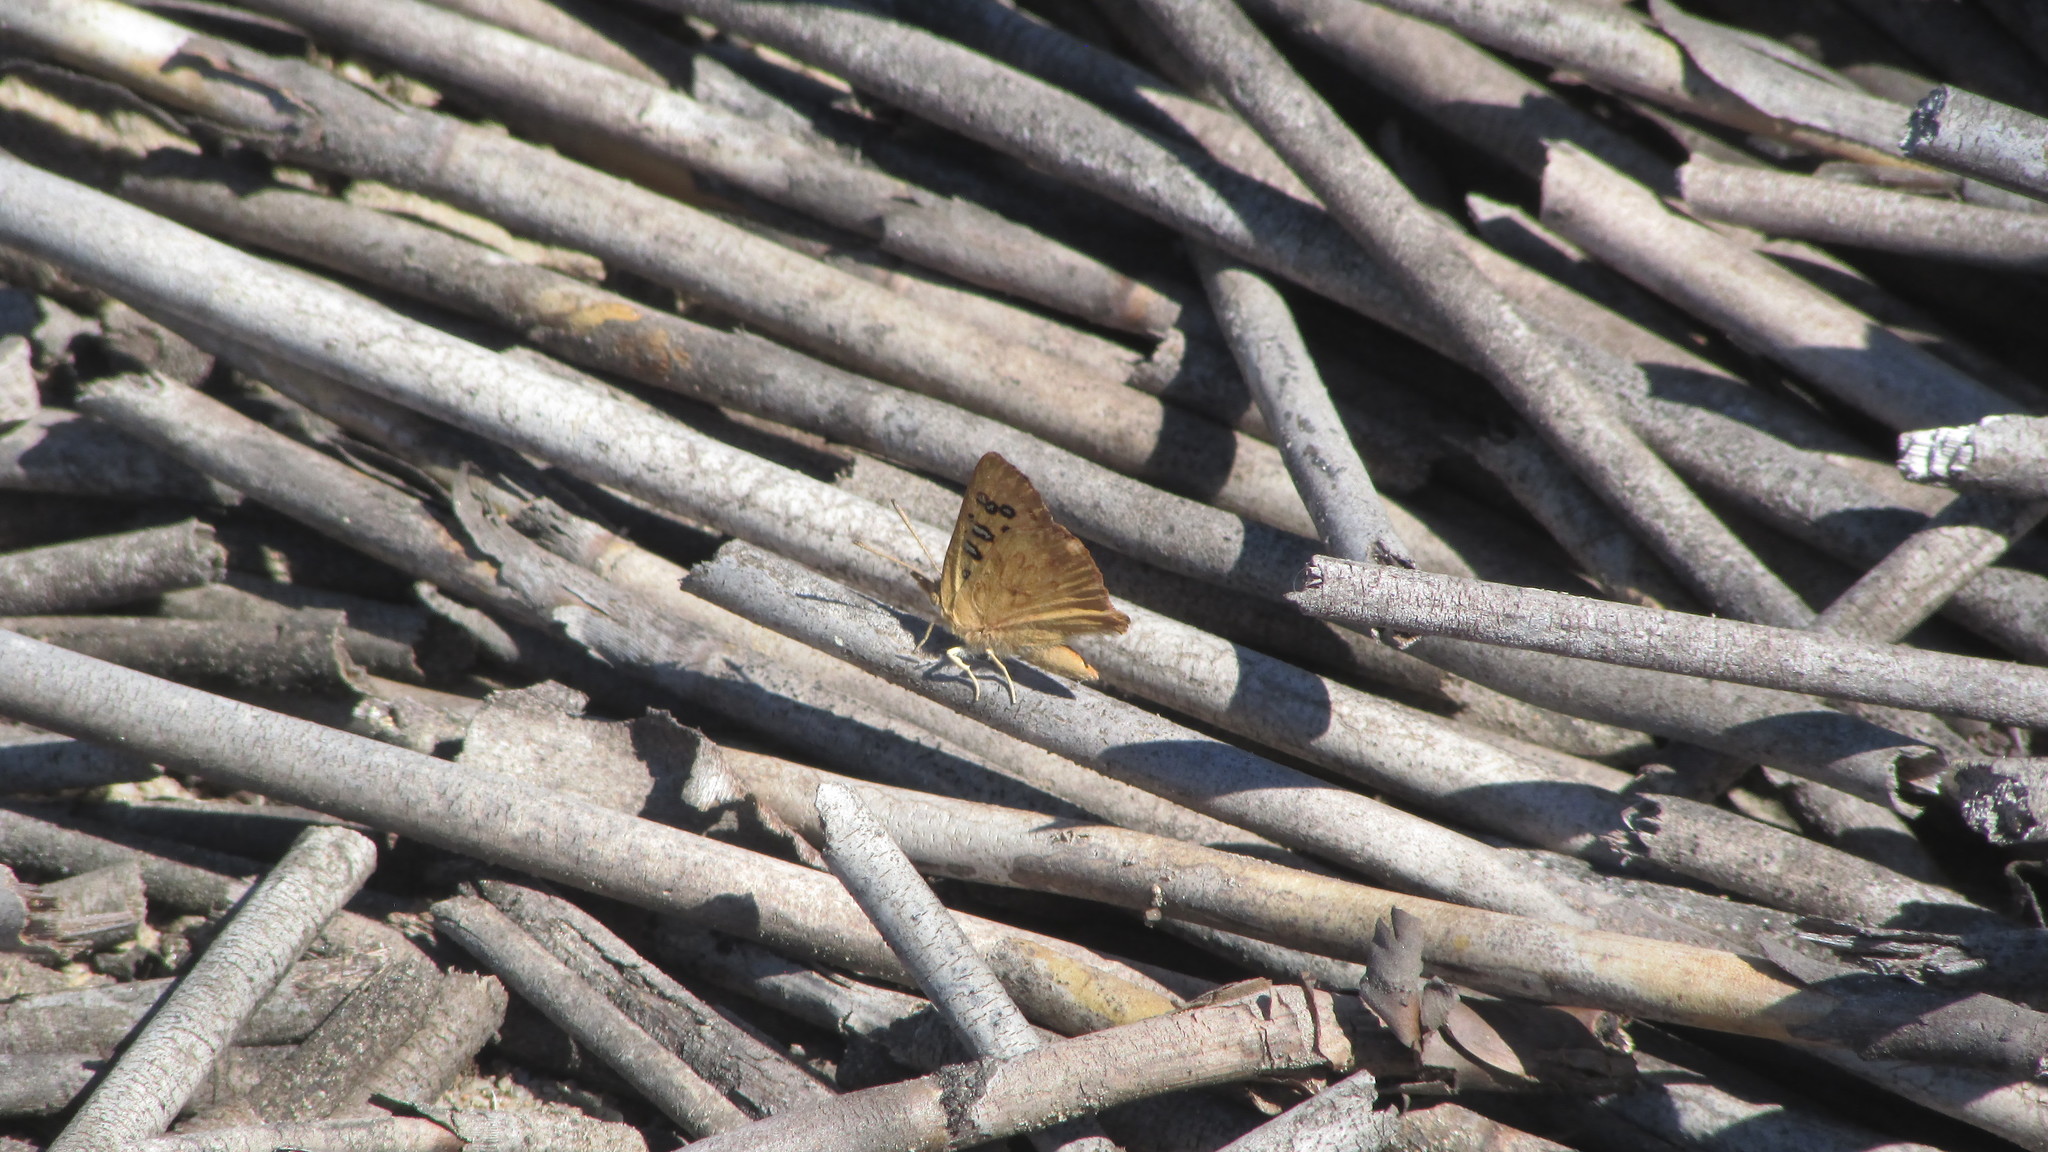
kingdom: Animalia
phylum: Arthropoda
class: Insecta
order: Lepidoptera
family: Lycaenidae
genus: Chrysoritis
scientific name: Chrysoritis pan
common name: Pan opal
